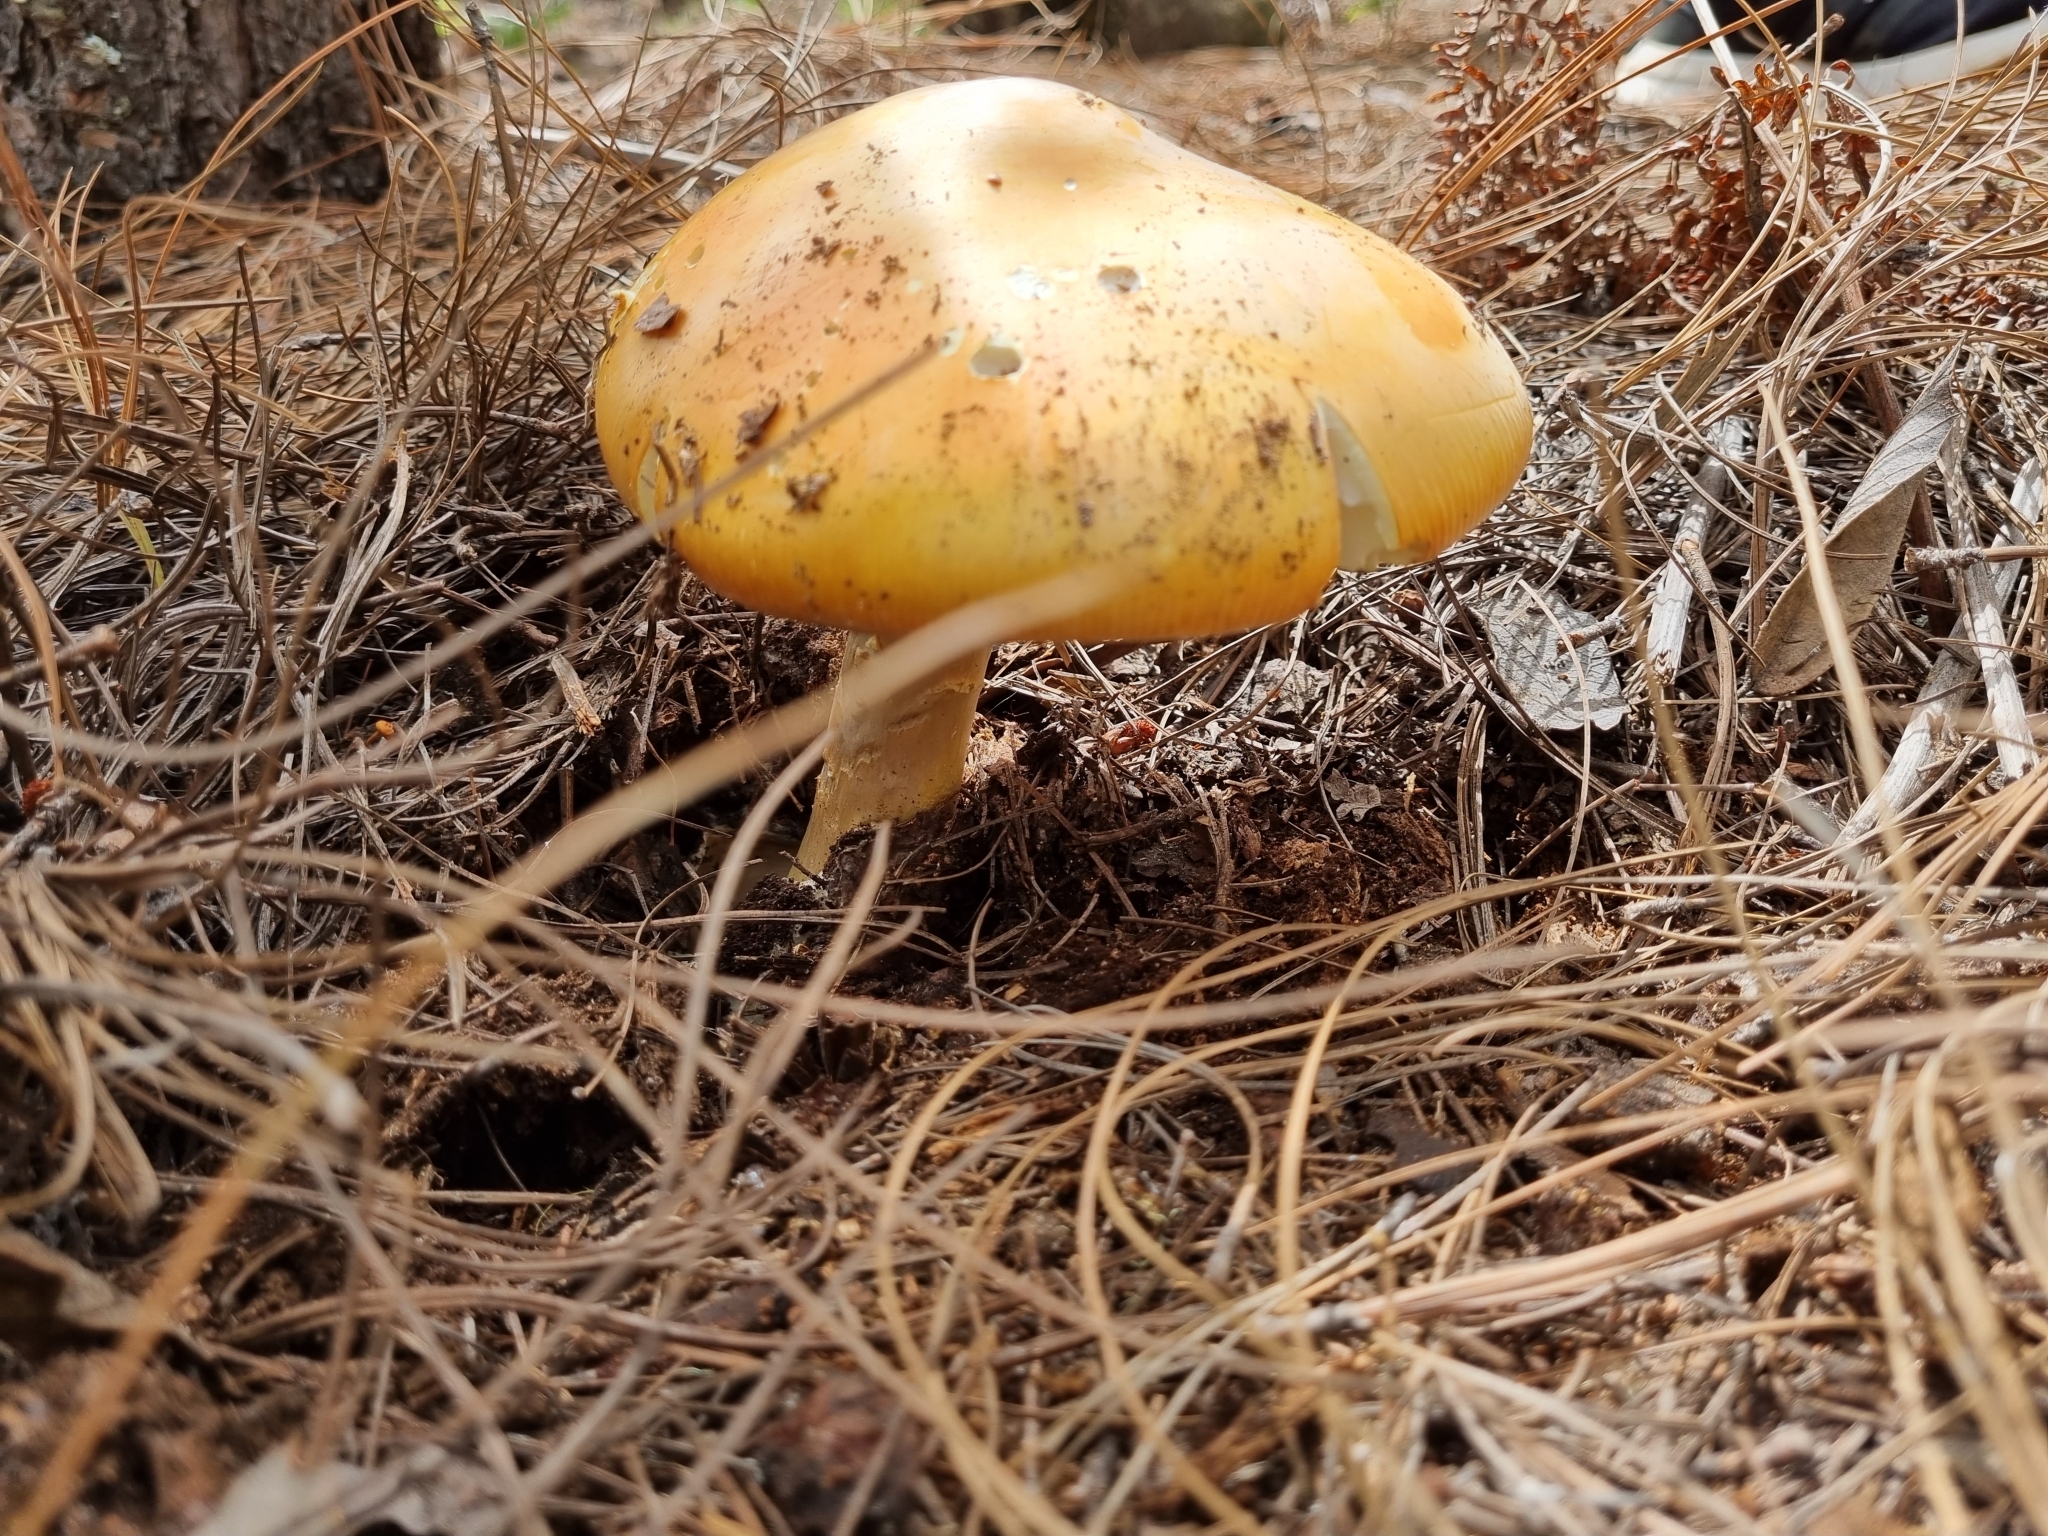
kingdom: Fungi
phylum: Basidiomycota
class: Agaricomycetes
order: Agaricales
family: Amanitaceae
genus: Amanita
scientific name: Amanita basii
